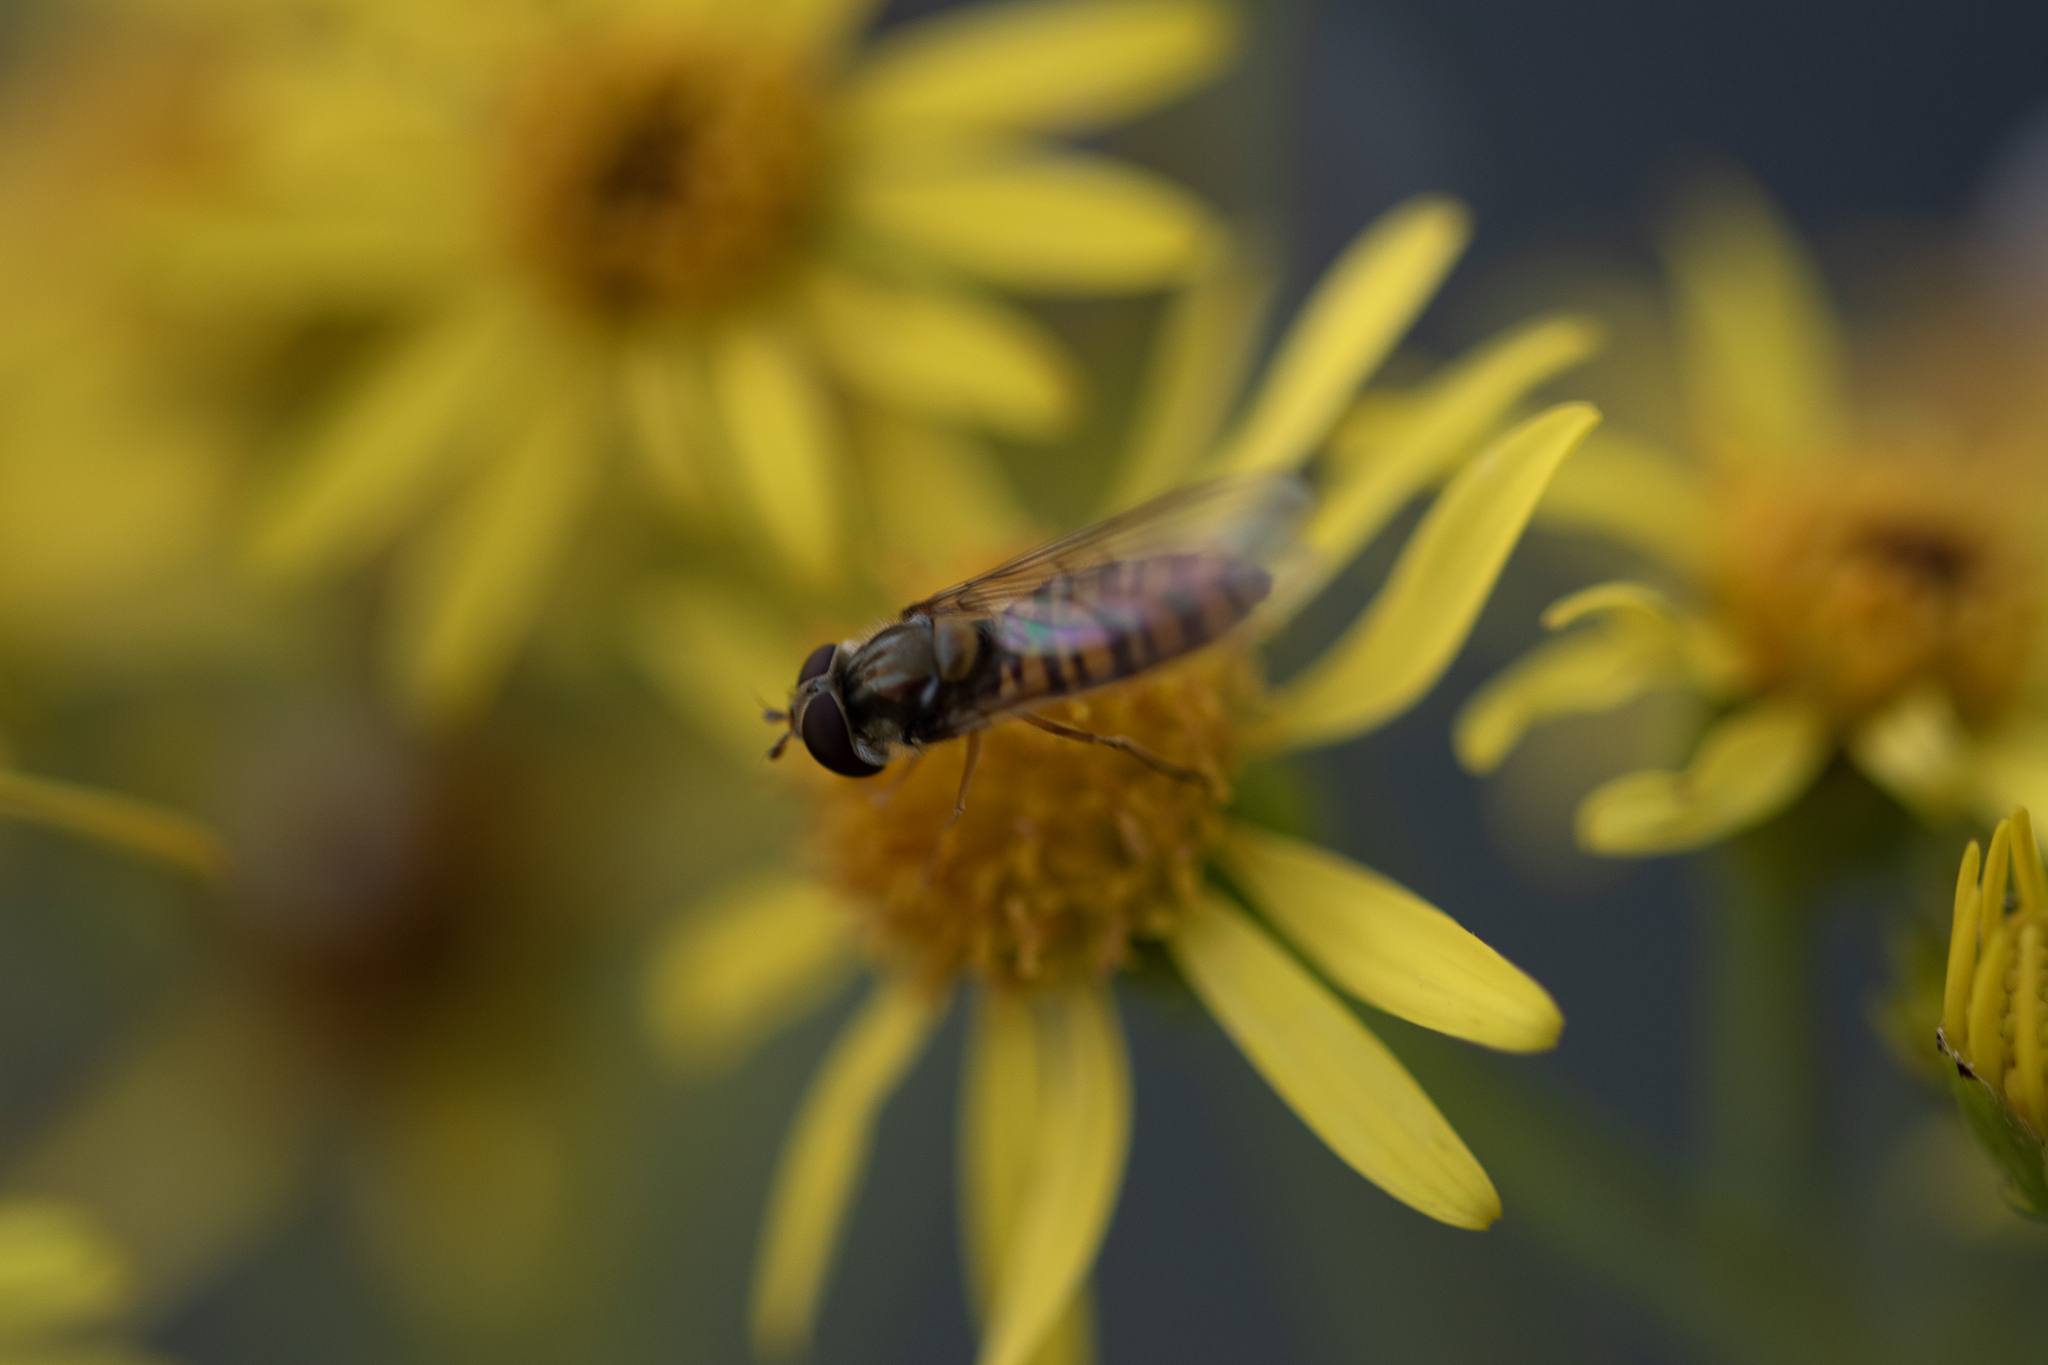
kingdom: Animalia
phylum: Arthropoda
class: Insecta
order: Diptera
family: Syrphidae
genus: Episyrphus
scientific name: Episyrphus balteatus
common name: Marmalade hoverfly
